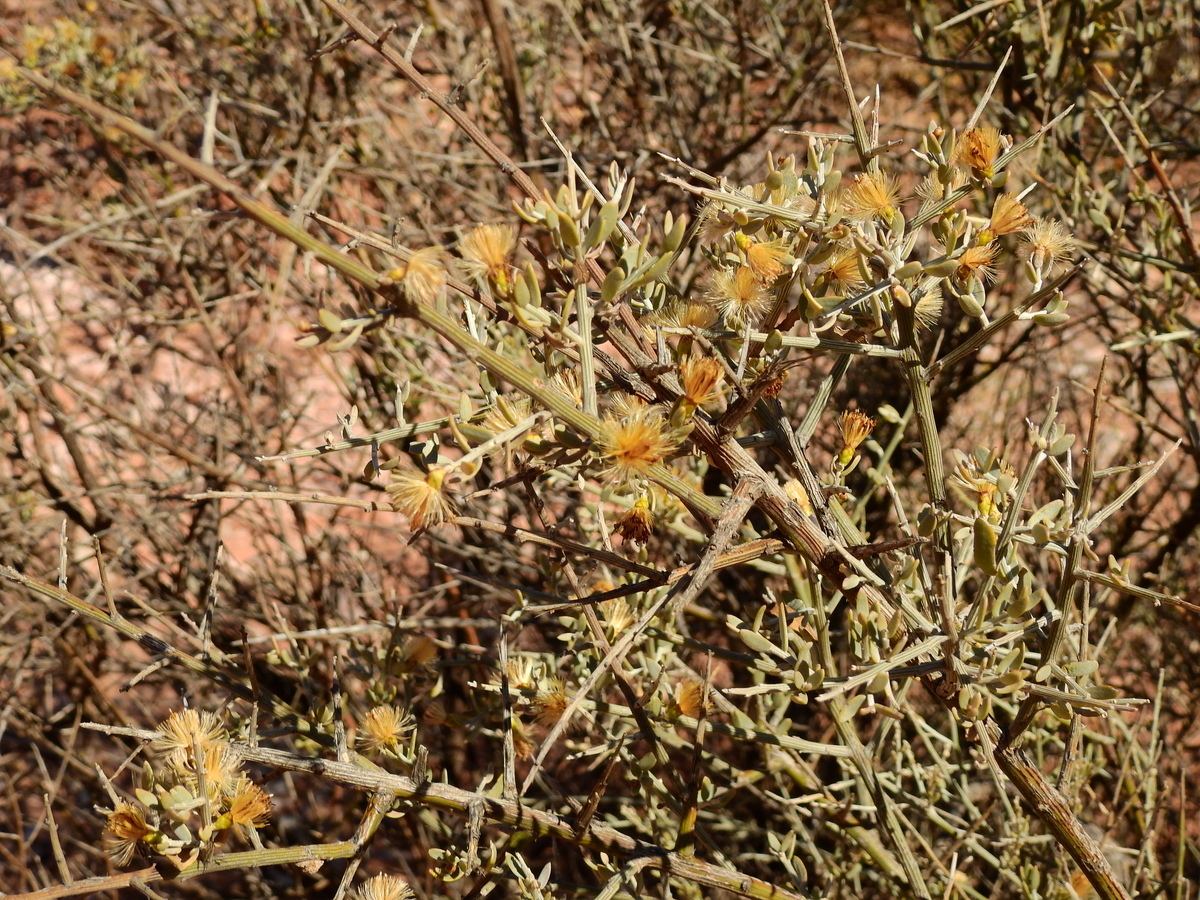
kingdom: Plantae
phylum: Tracheophyta
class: Magnoliopsida
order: Asterales
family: Asteraceae
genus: Cyclolepis
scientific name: Cyclolepis genistoides
